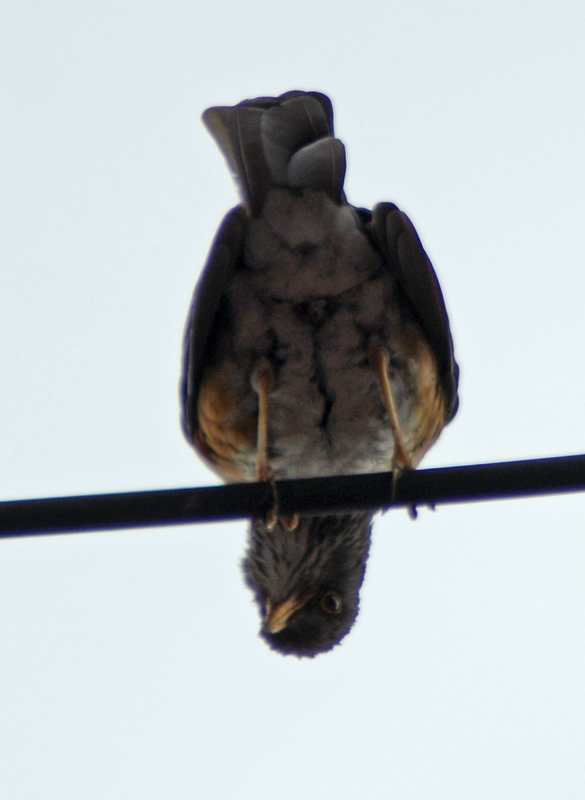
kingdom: Animalia
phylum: Chordata
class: Aves
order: Passeriformes
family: Turdidae
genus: Turdus
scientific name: Turdus rufopalliatus
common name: Rufous-backed robin
